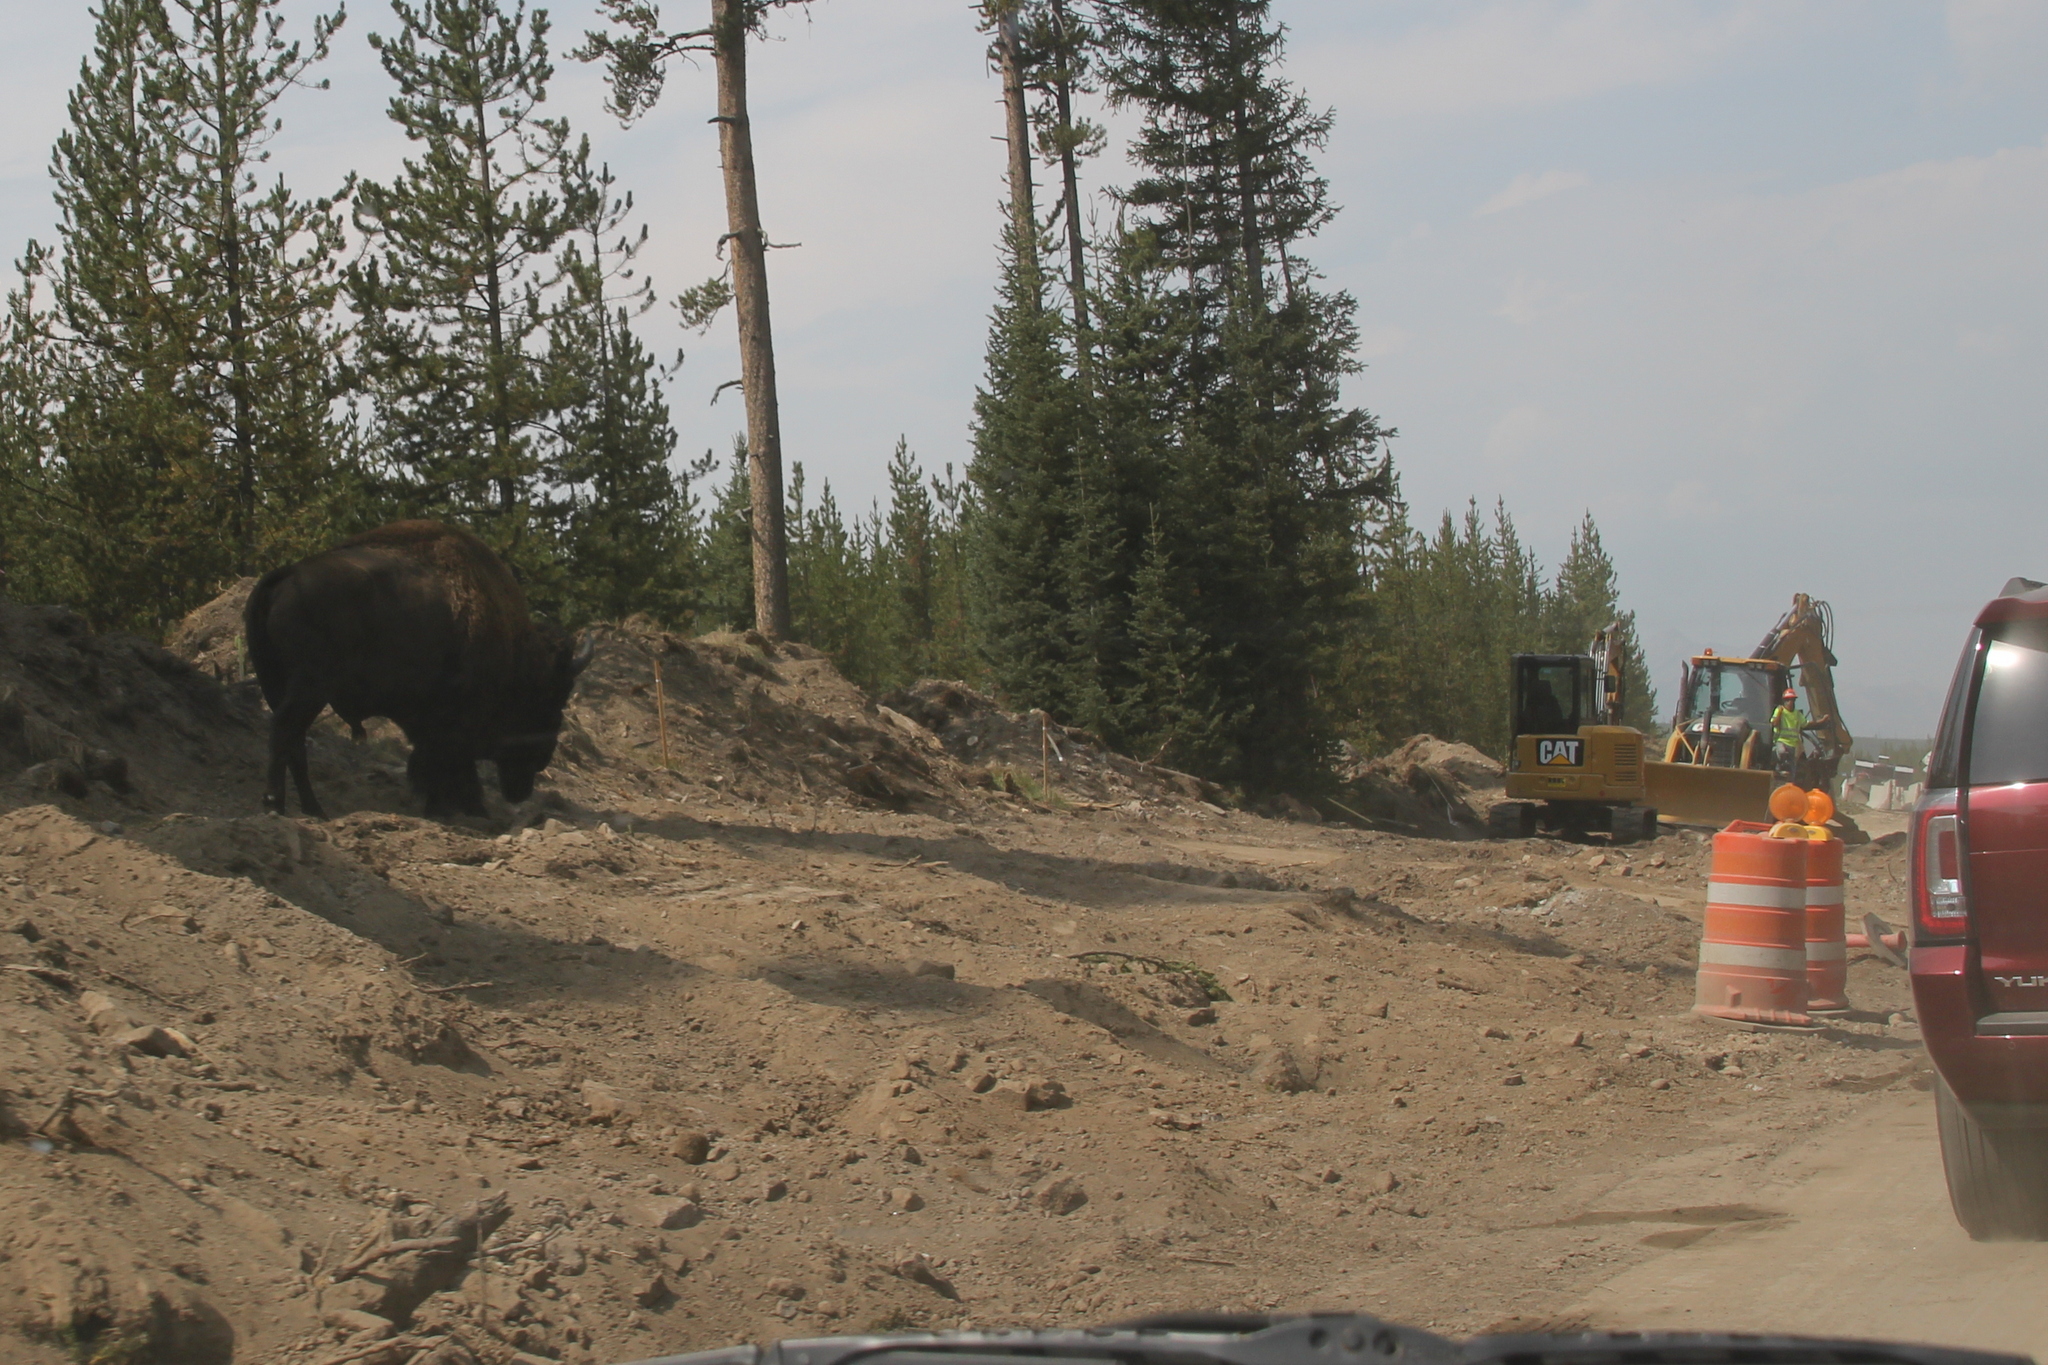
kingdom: Animalia
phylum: Chordata
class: Mammalia
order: Artiodactyla
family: Bovidae
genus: Bison
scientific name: Bison bison
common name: American bison
